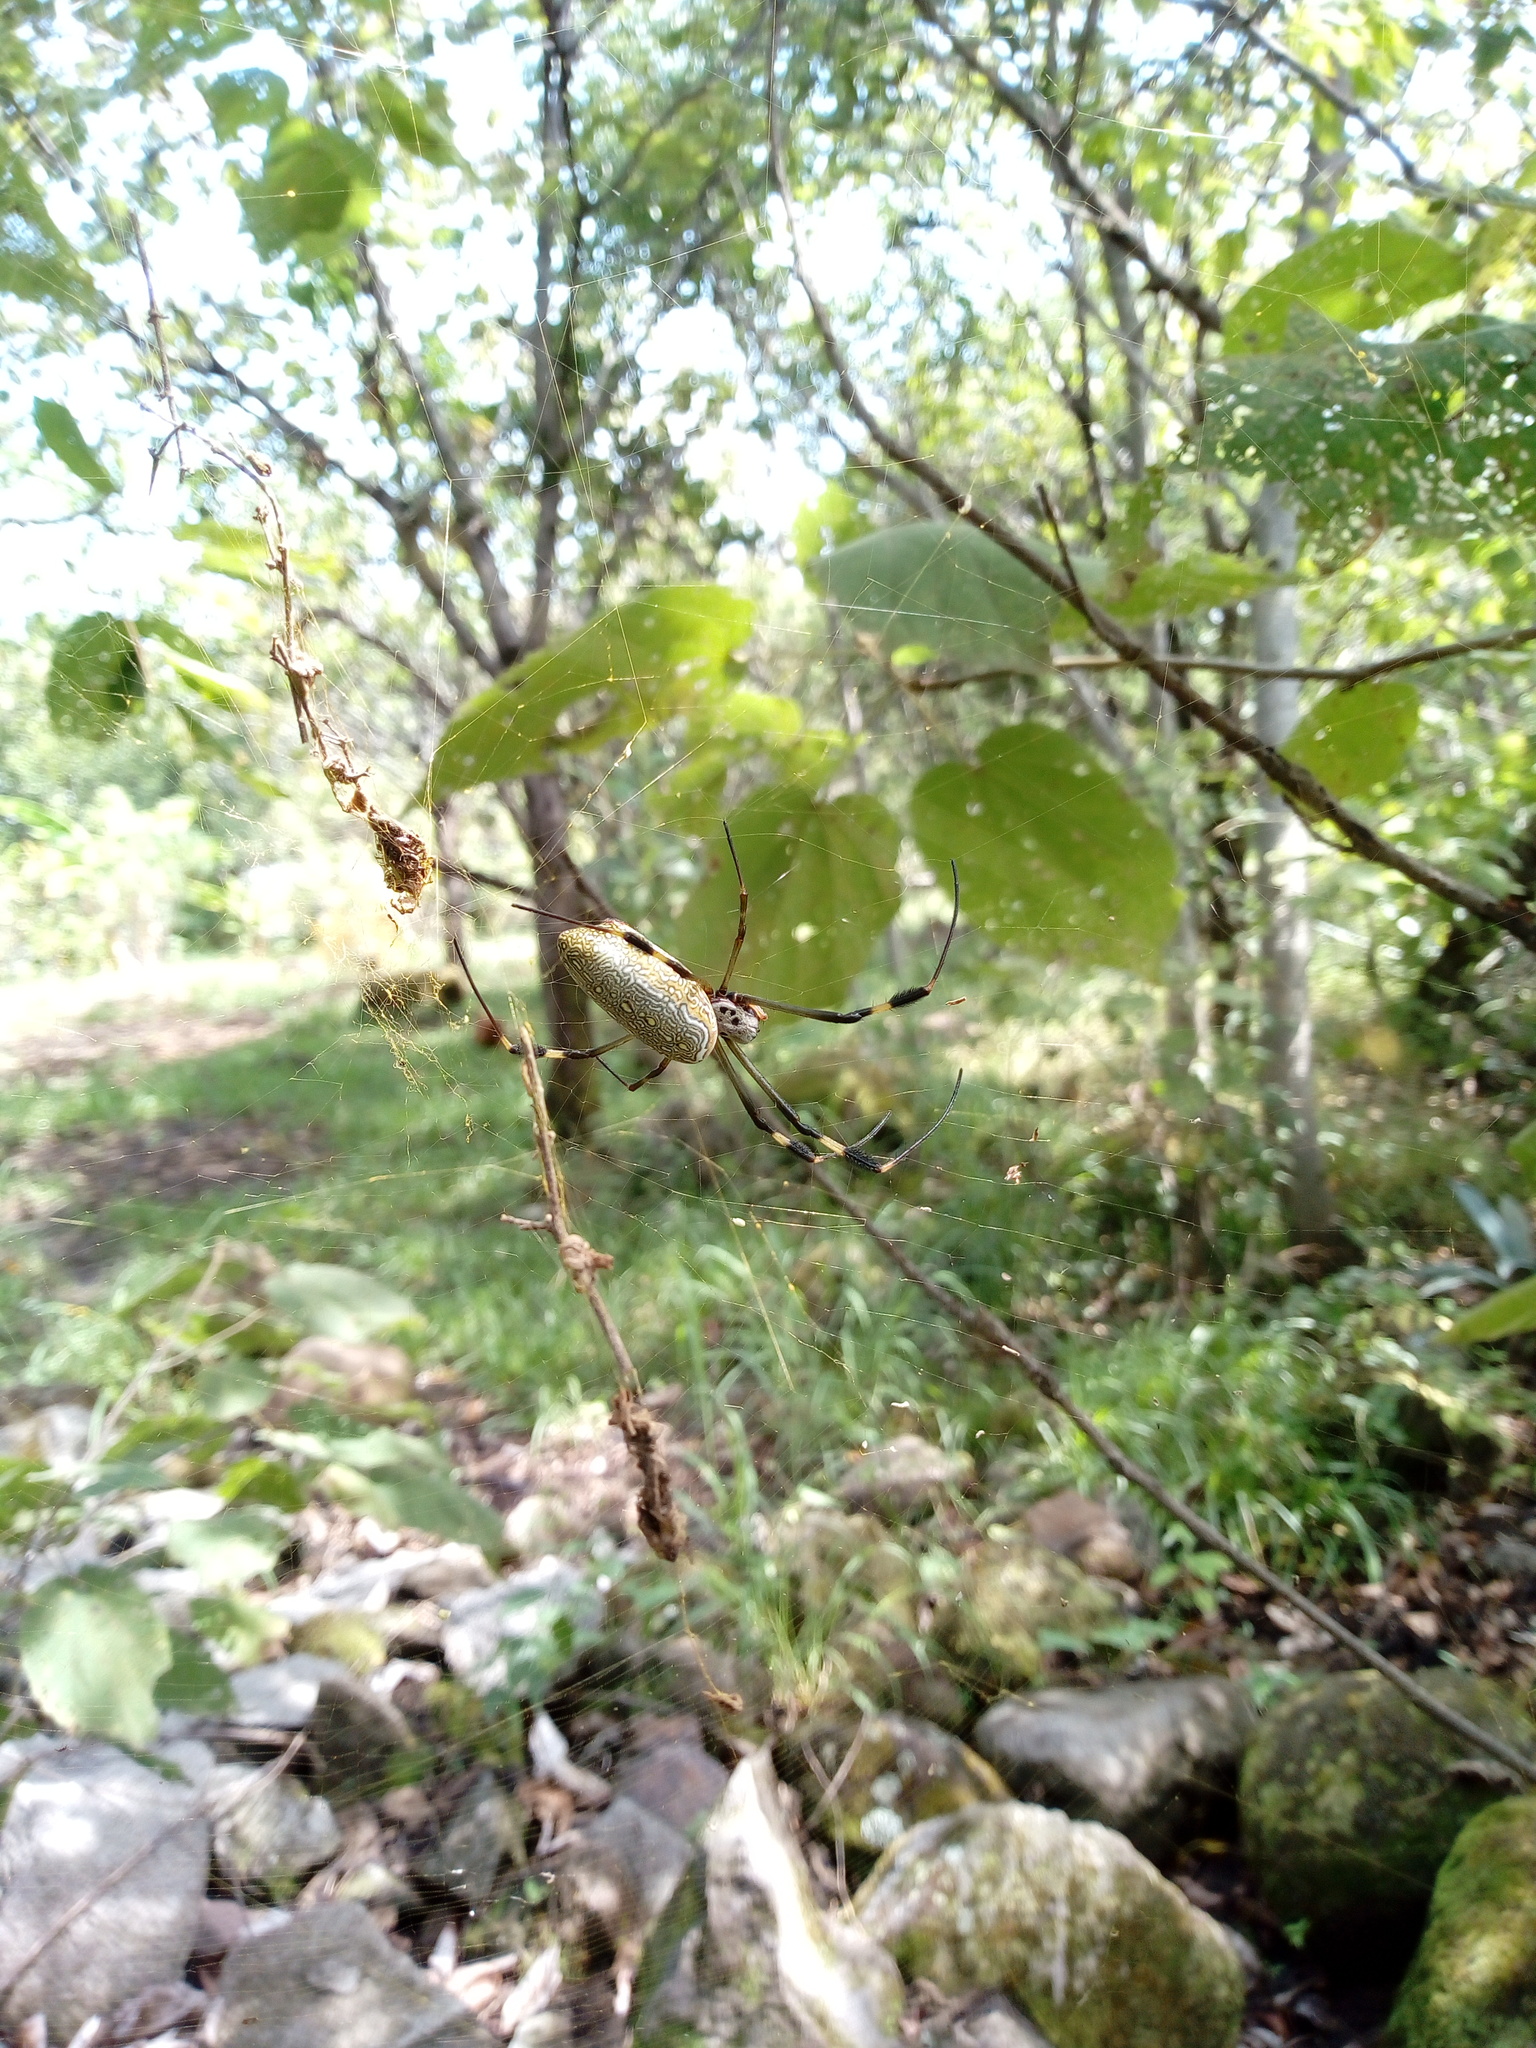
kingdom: Animalia
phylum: Arthropoda
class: Arachnida
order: Araneae
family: Araneidae
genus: Trichonephila
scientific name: Trichonephila clavipes
